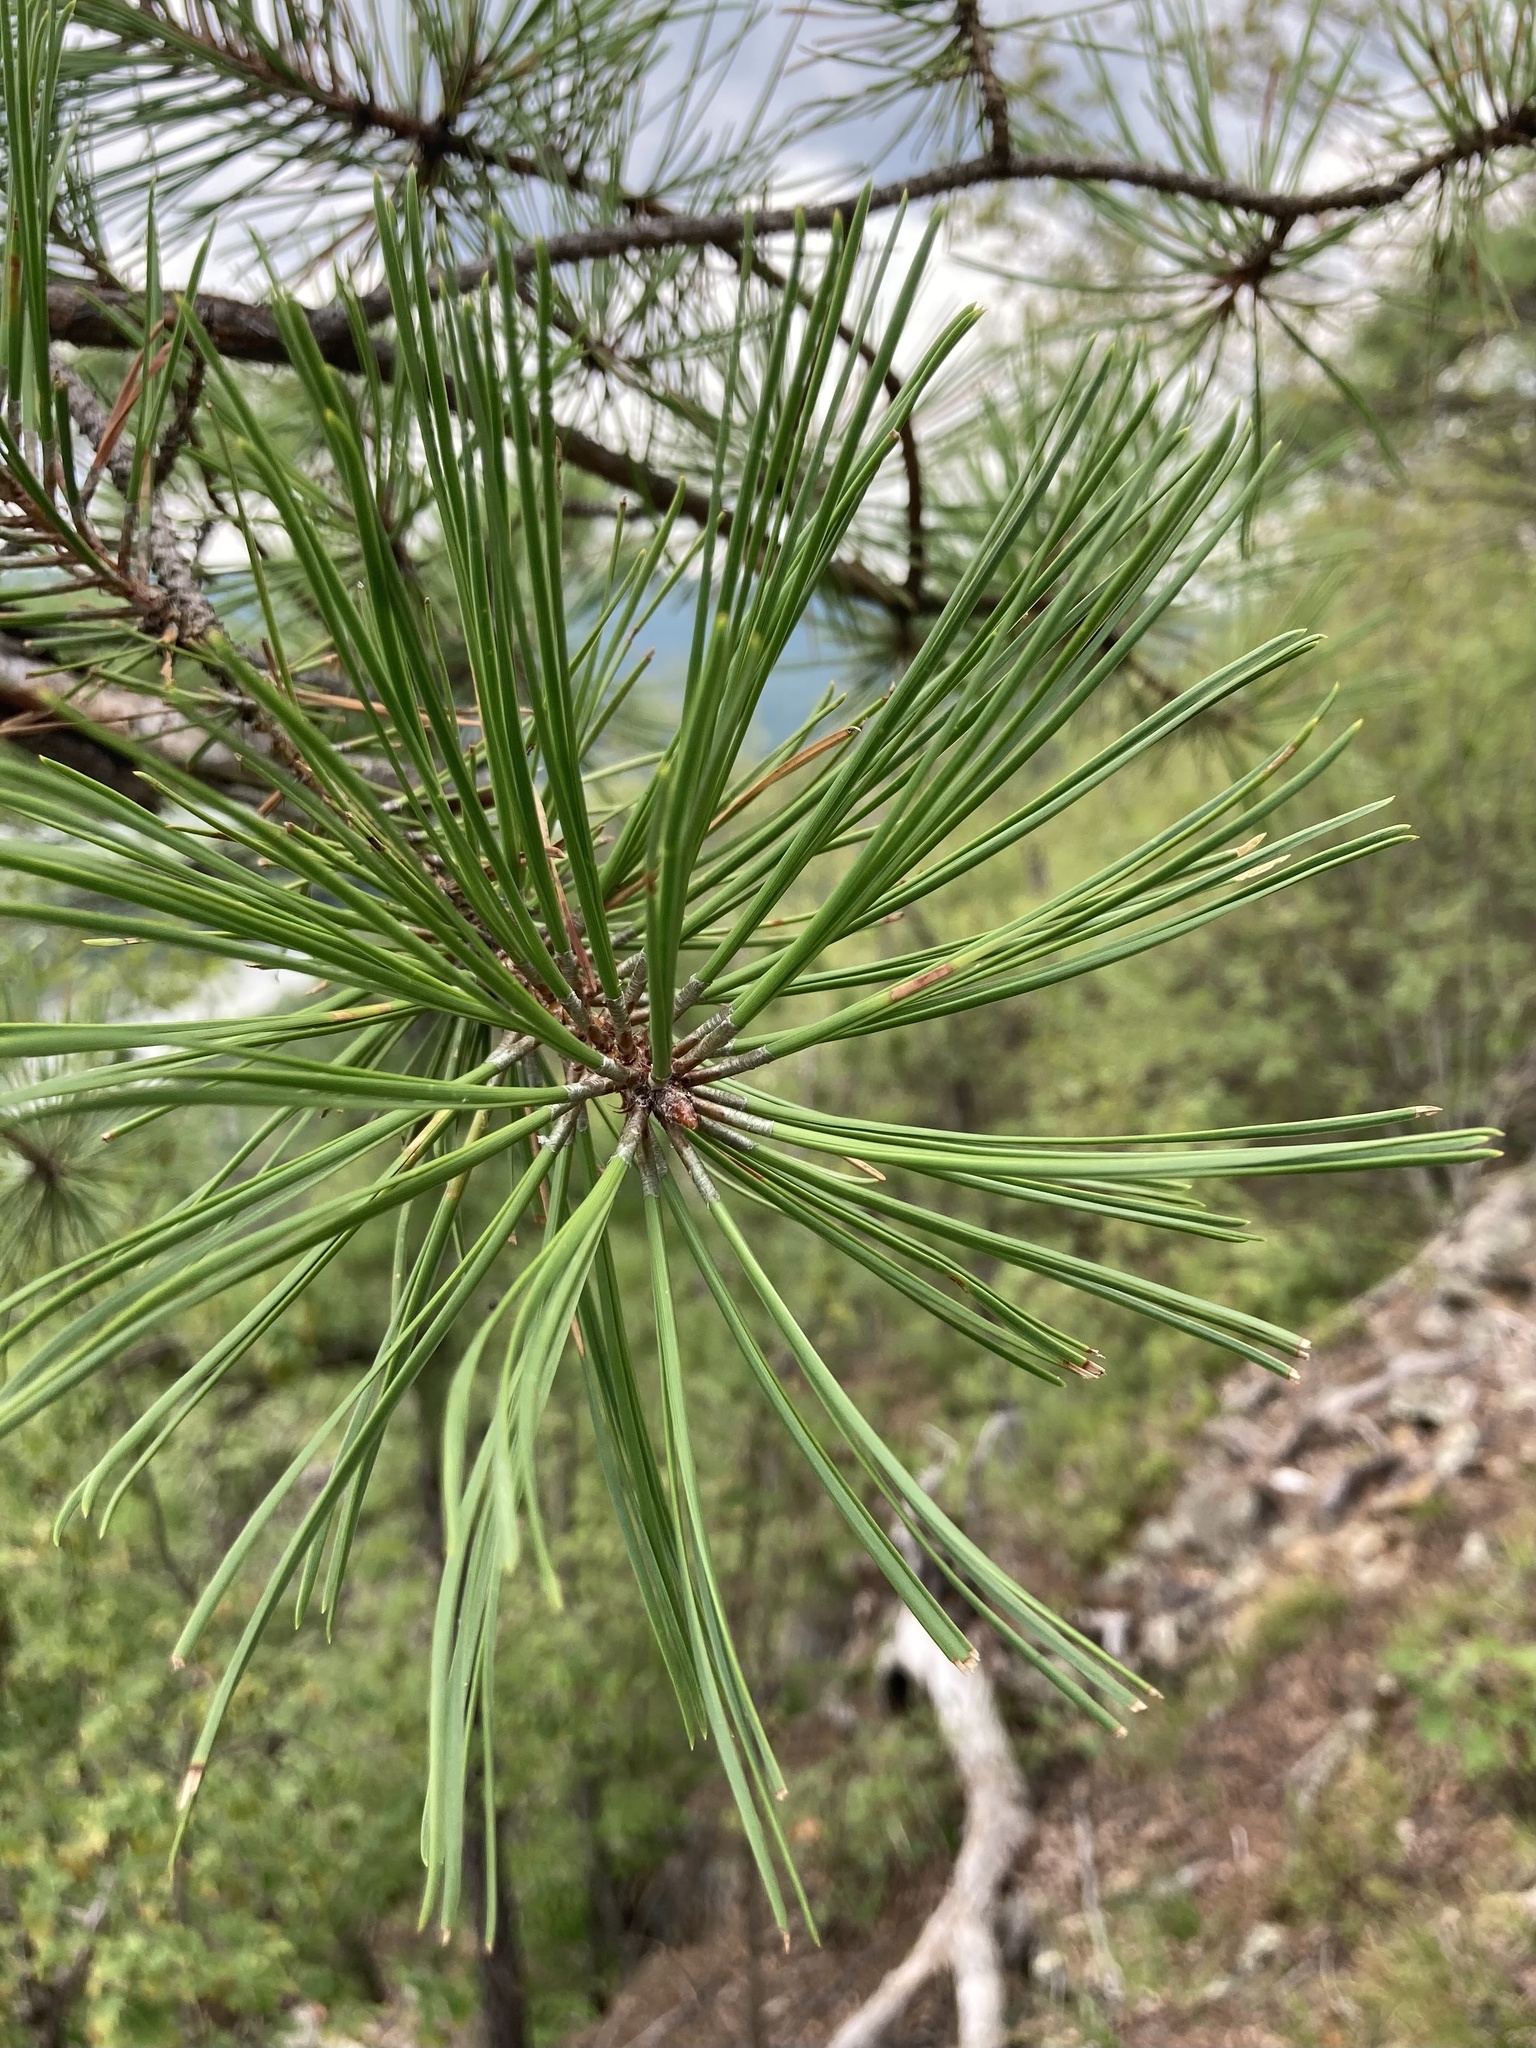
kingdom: Plantae
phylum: Tracheophyta
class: Pinopsida
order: Pinales
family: Pinaceae
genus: Pinus
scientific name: Pinus rigida
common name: Pitch pine
